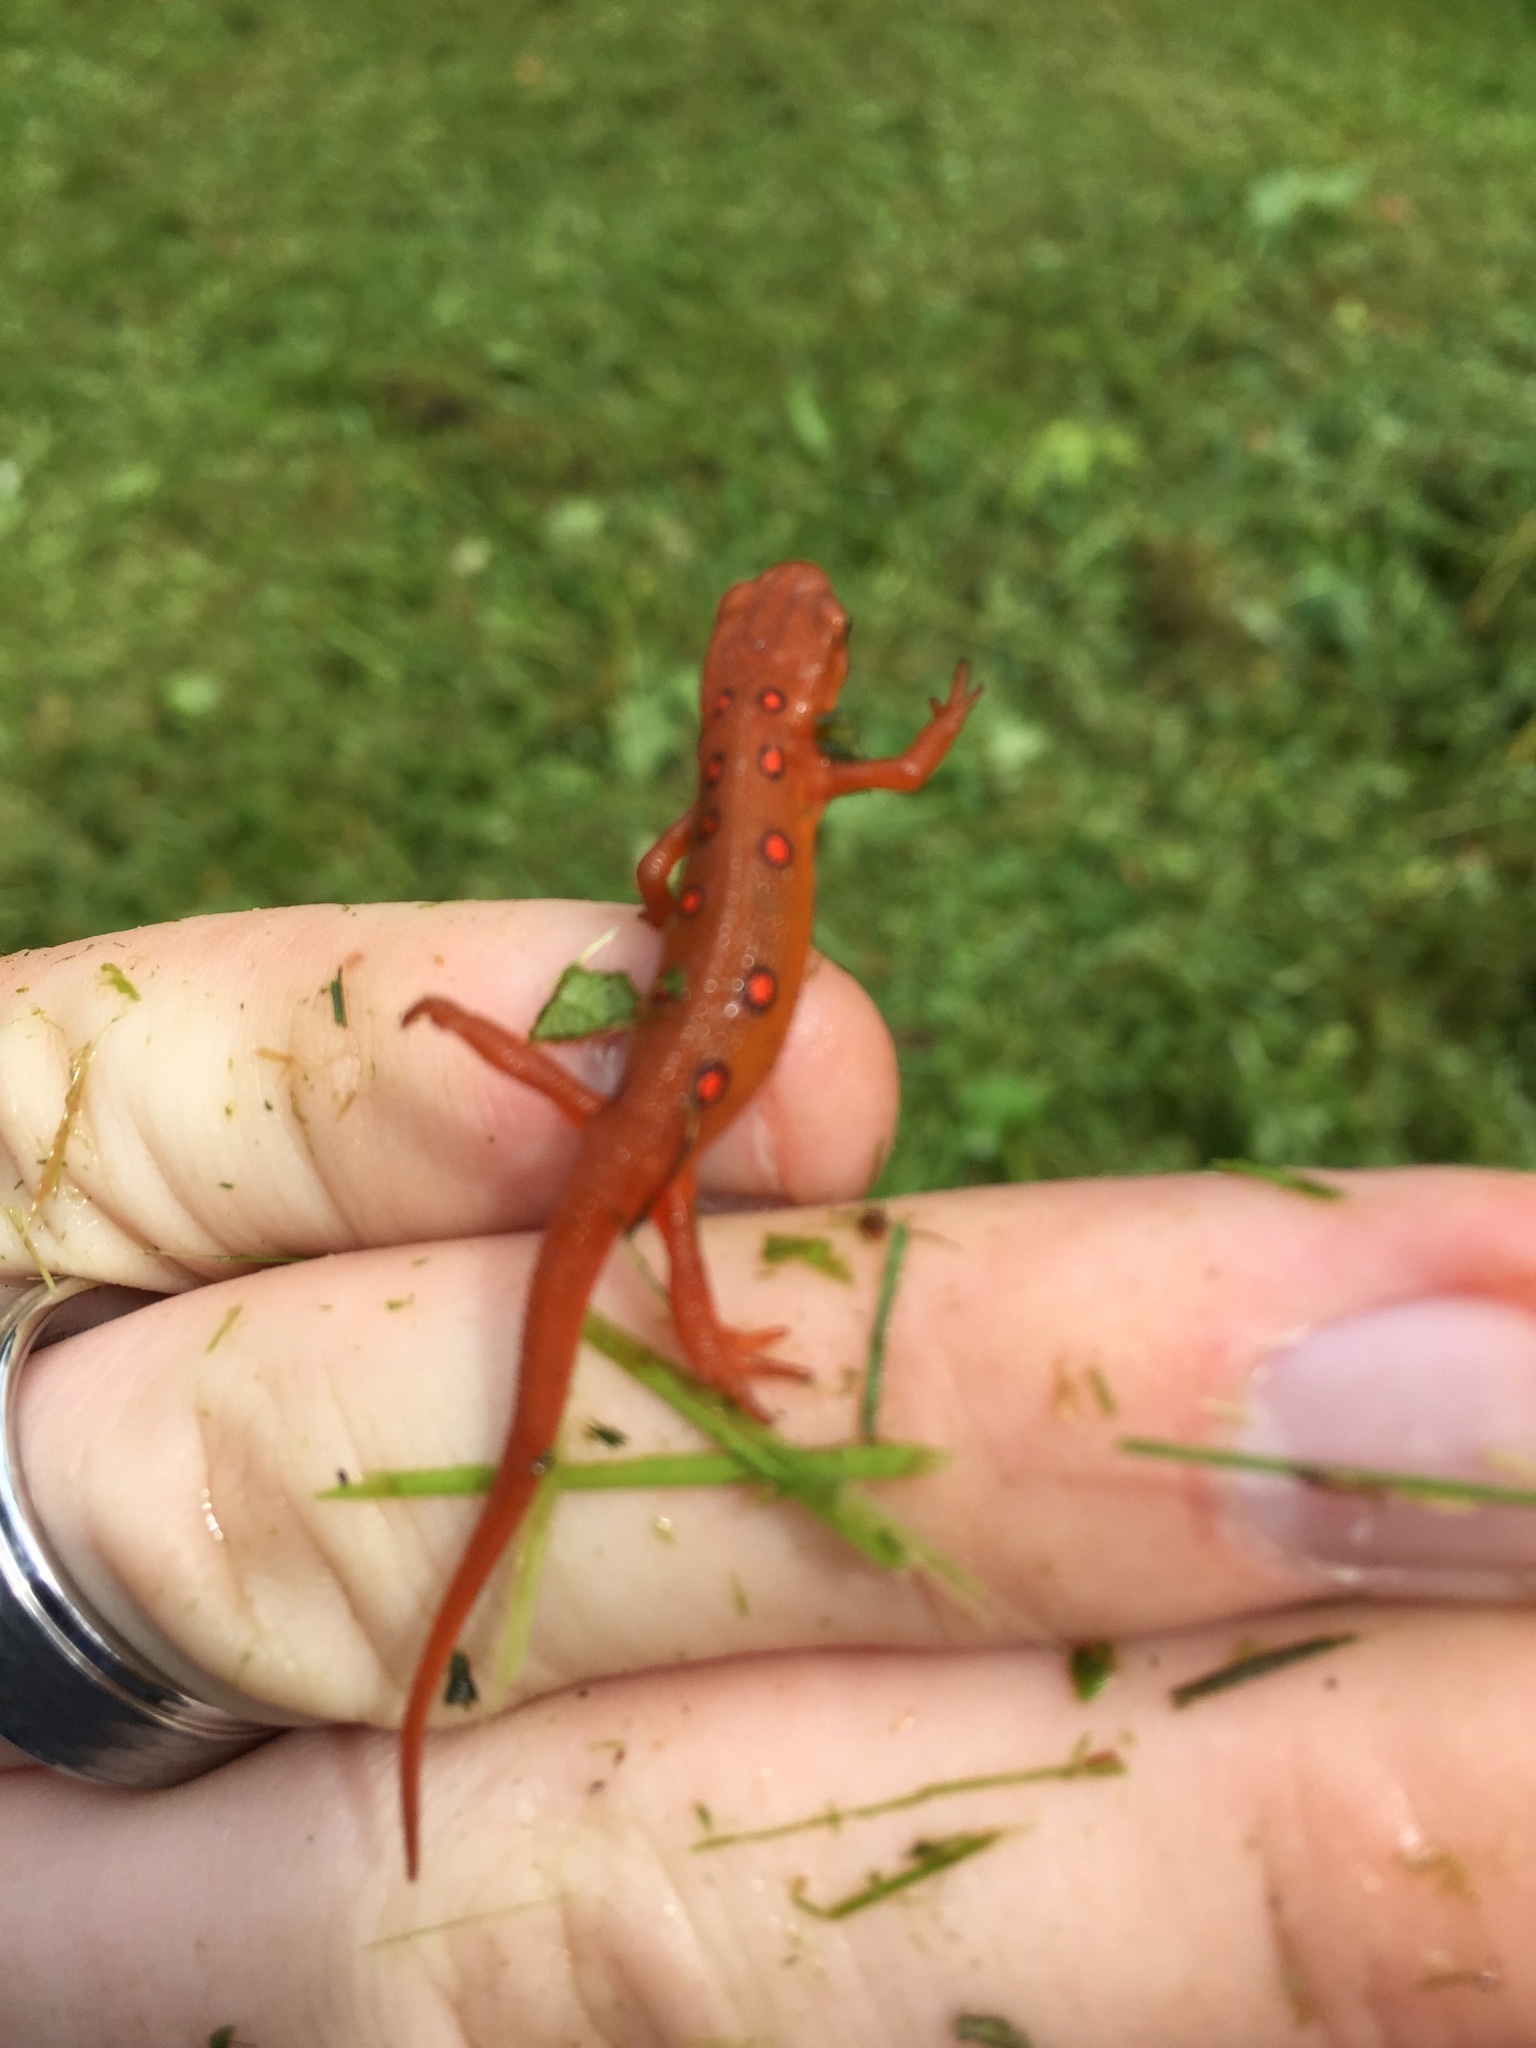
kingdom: Animalia
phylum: Chordata
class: Amphibia
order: Caudata
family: Salamandridae
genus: Notophthalmus
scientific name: Notophthalmus viridescens
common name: Eastern newt
